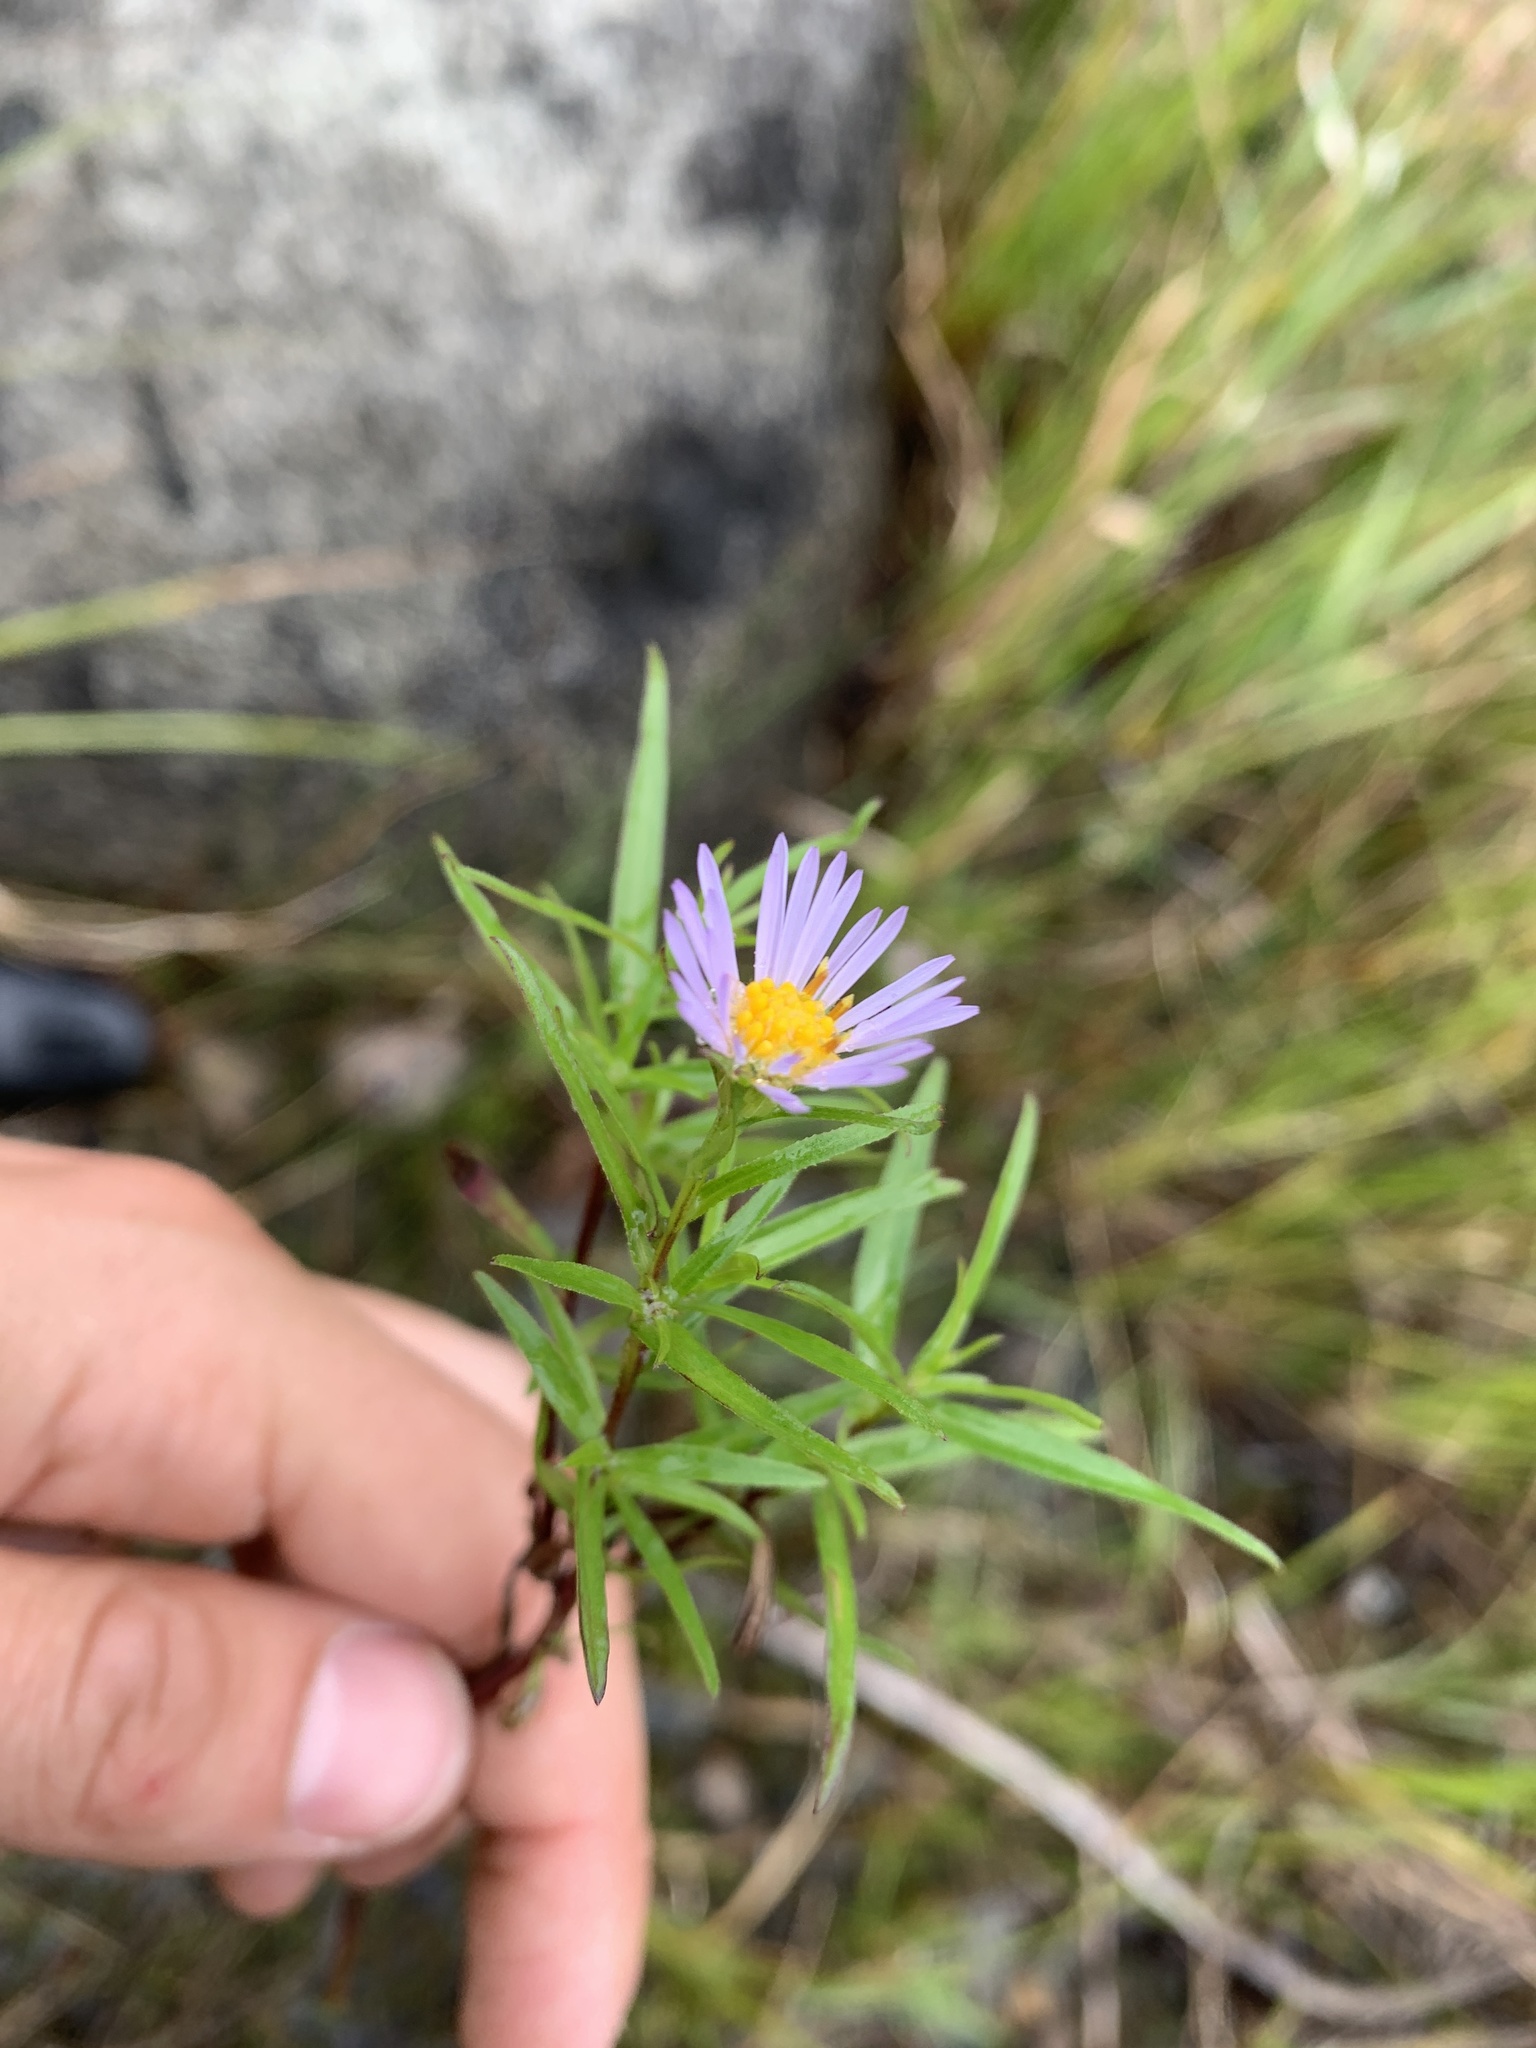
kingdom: Plantae
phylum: Tracheophyta
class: Magnoliopsida
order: Asterales
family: Asteraceae
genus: Symphyotrichum
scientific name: Symphyotrichum robynsianum
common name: Robyns' aster
